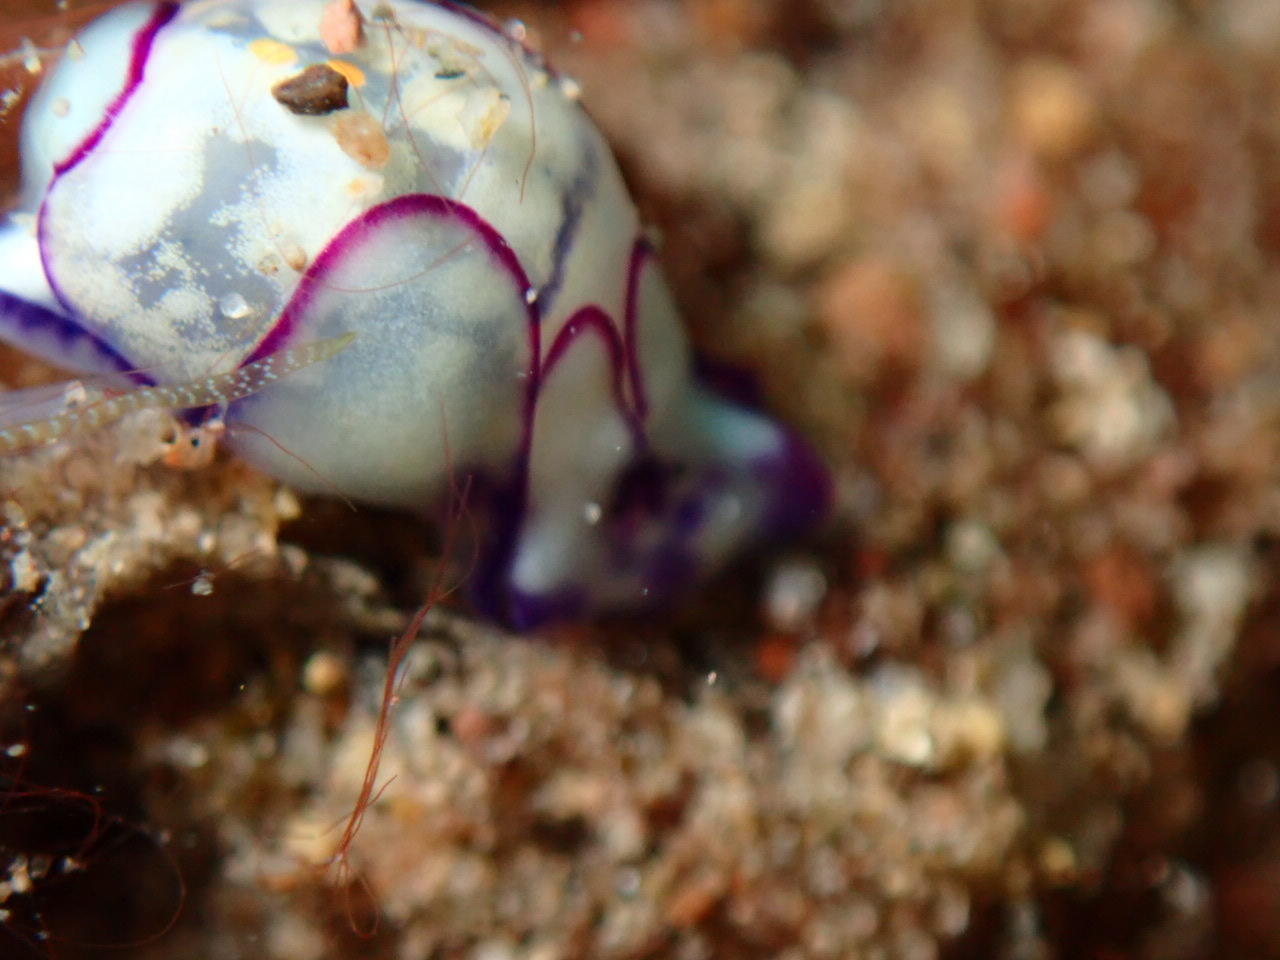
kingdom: Animalia
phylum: Mollusca
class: Gastropoda
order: Cephalaspidea
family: Haminoeidae
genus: Lamprohaminoea
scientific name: Lamprohaminoea ovalis
